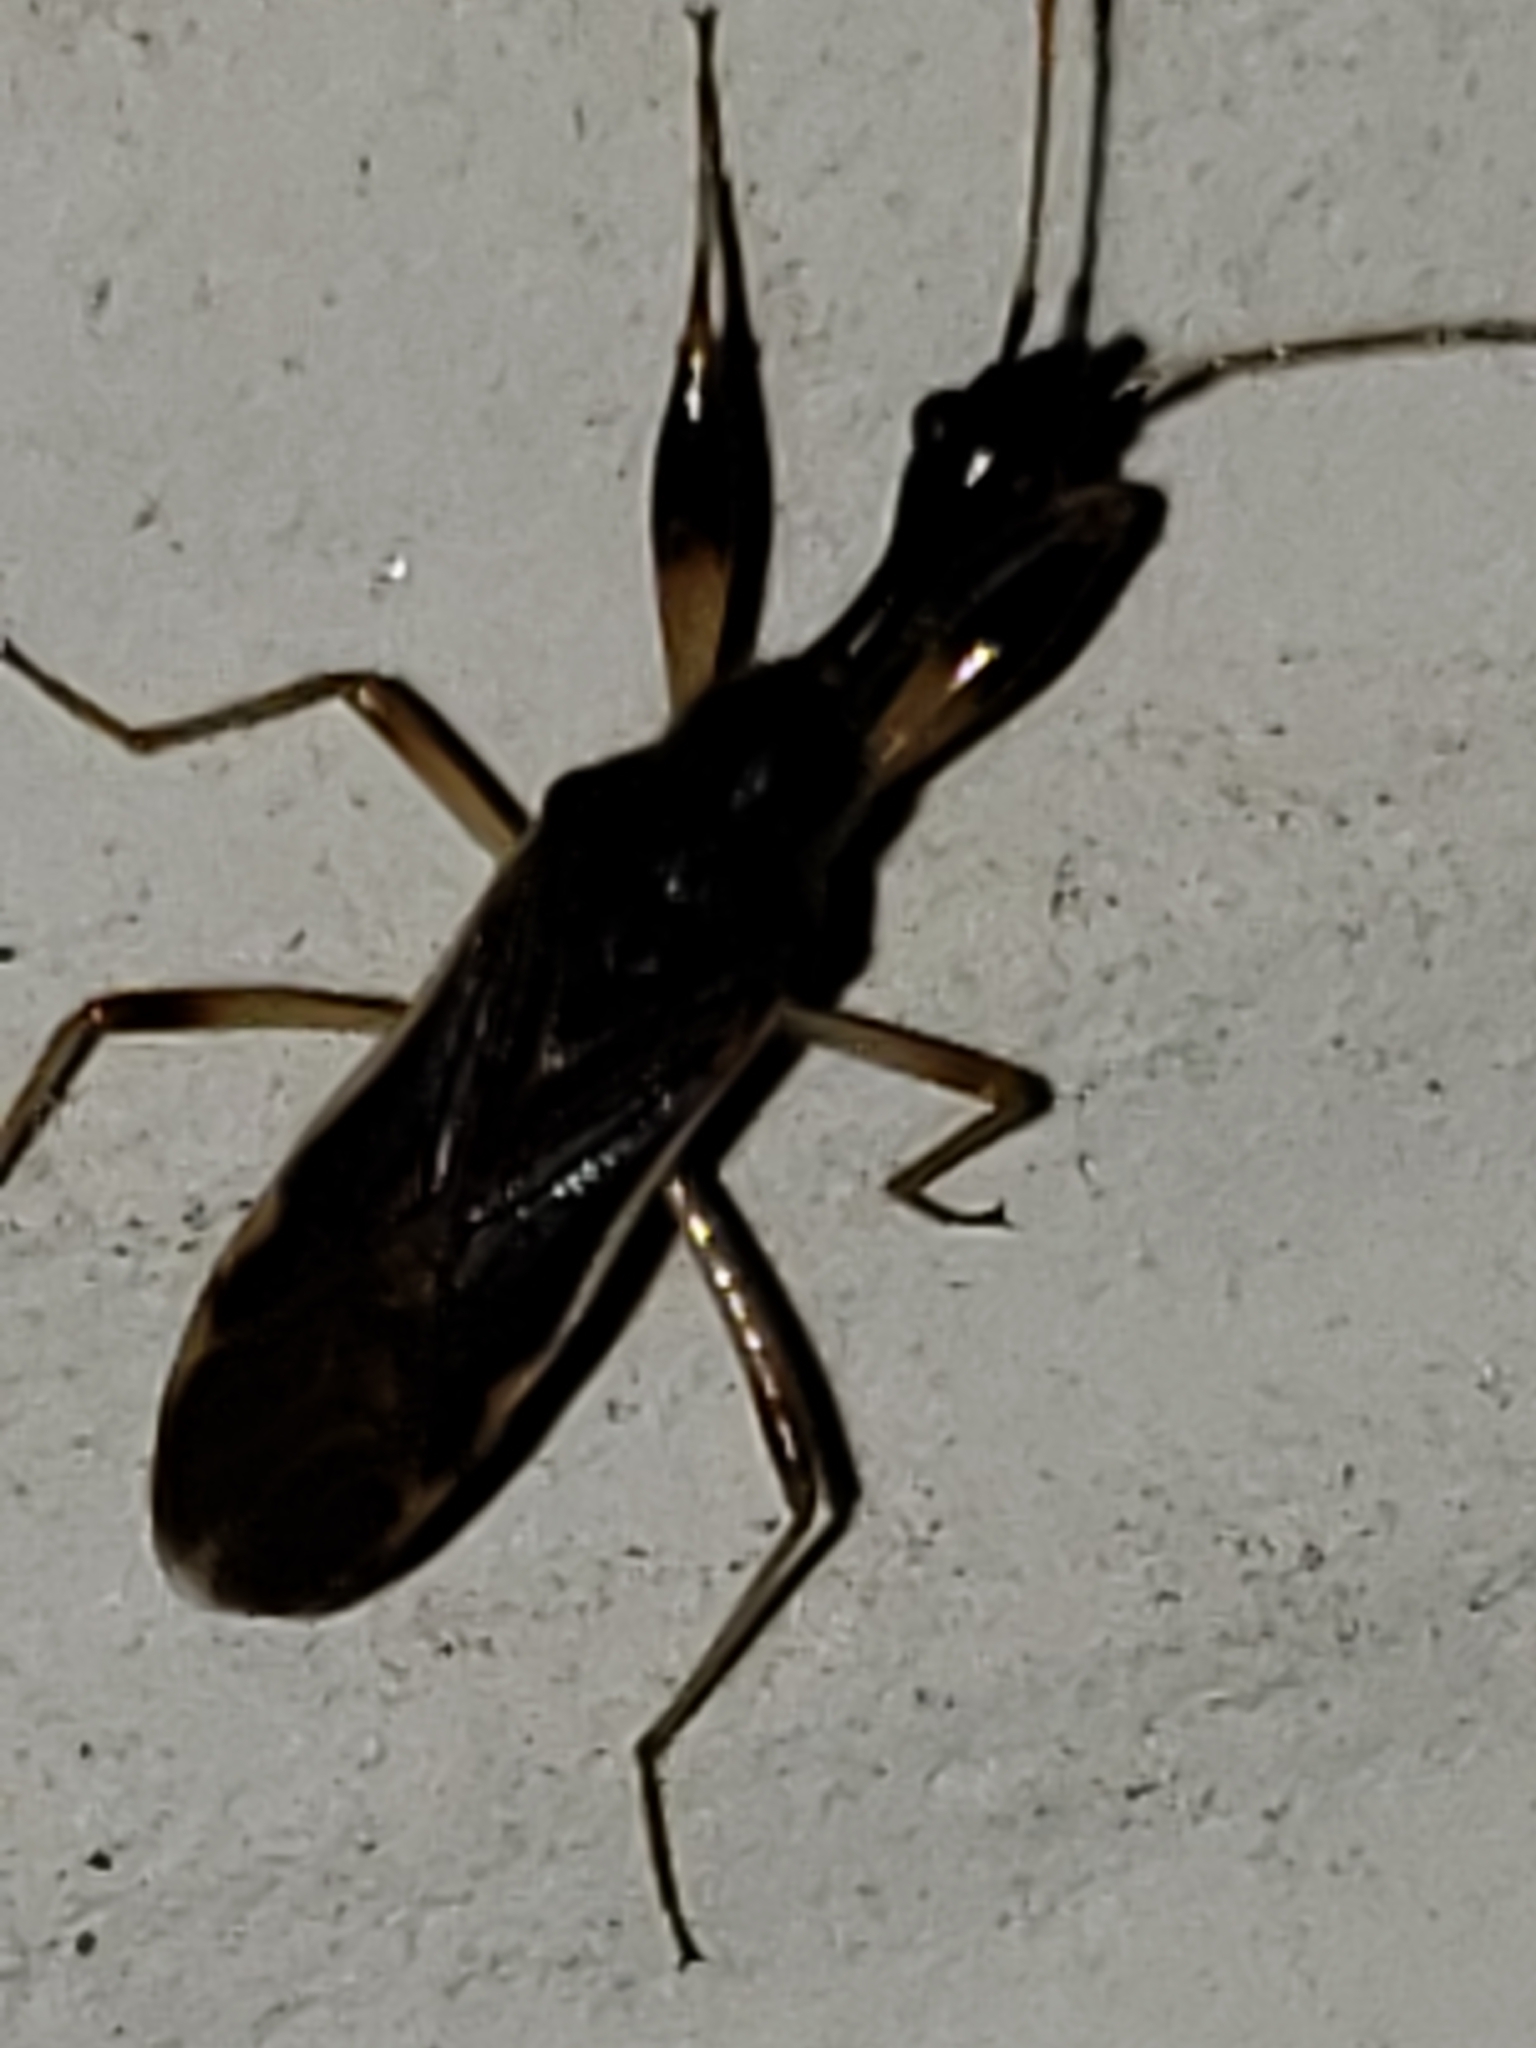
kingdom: Animalia
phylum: Arthropoda
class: Insecta
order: Hemiptera
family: Rhyparochromidae
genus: Myodocha
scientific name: Myodocha serripes
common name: Long-necked seed bug
